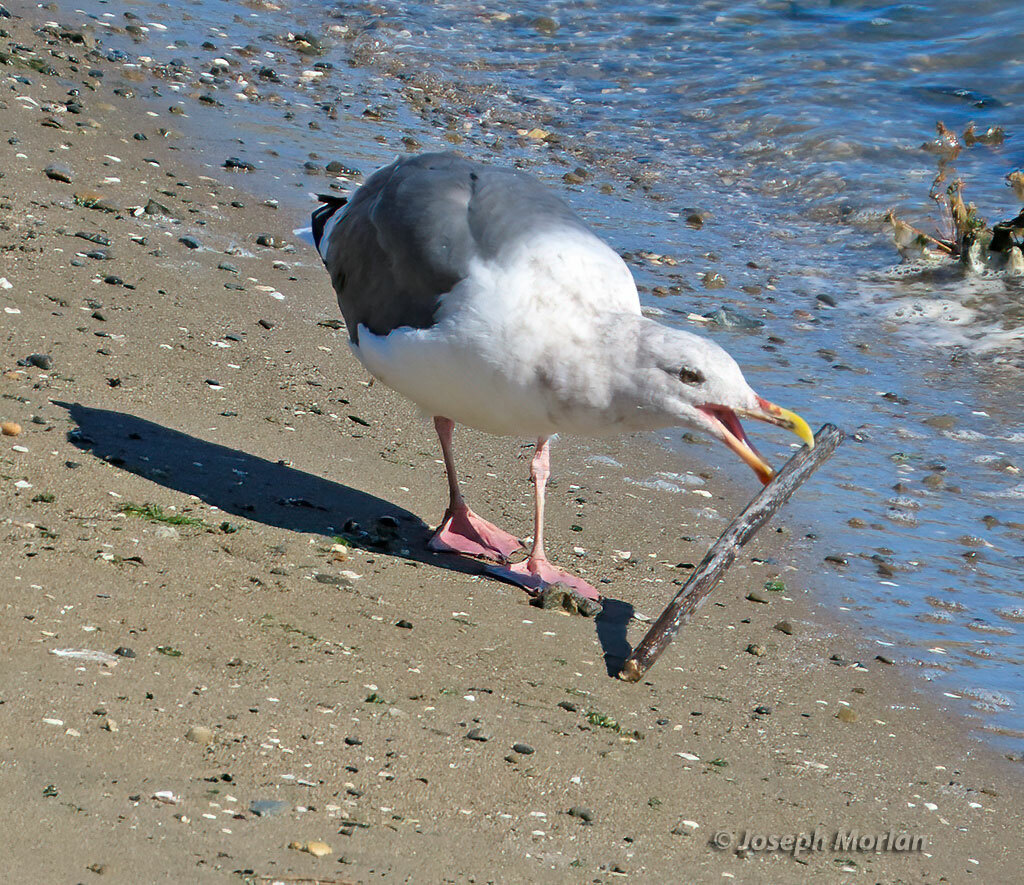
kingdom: Animalia
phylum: Chordata
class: Aves
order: Charadriiformes
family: Laridae
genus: Larus
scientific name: Larus occidentalis
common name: Western gull
